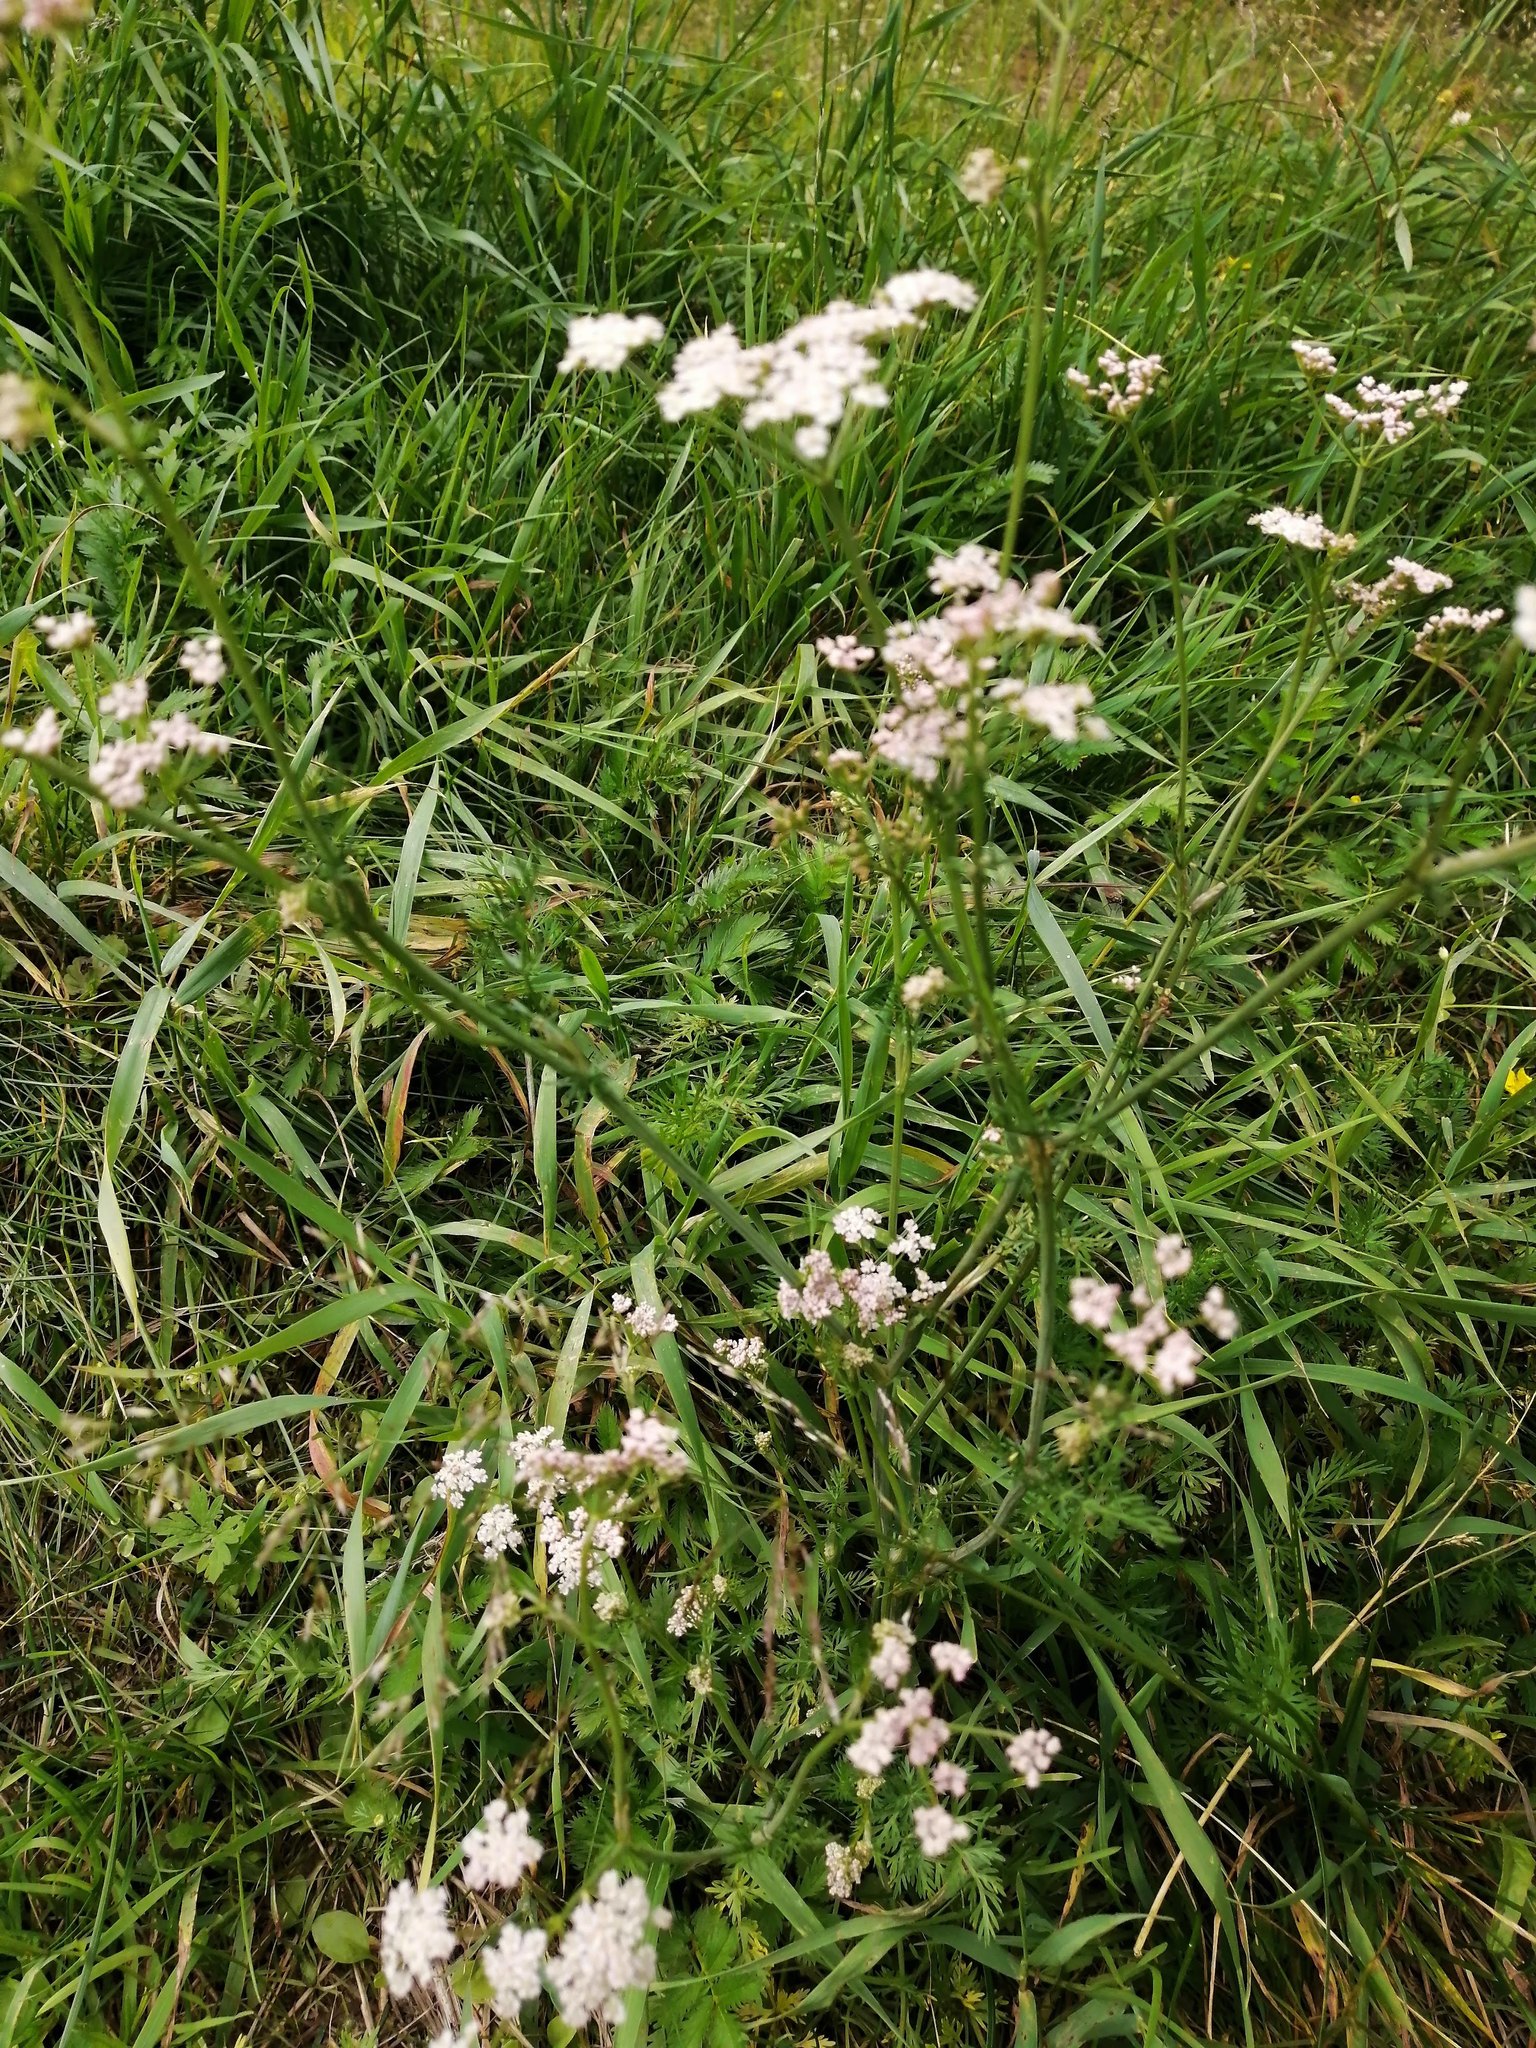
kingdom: Plantae
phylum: Tracheophyta
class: Magnoliopsida
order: Apiales
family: Apiaceae
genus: Carum
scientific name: Carum carvi
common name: Caraway
